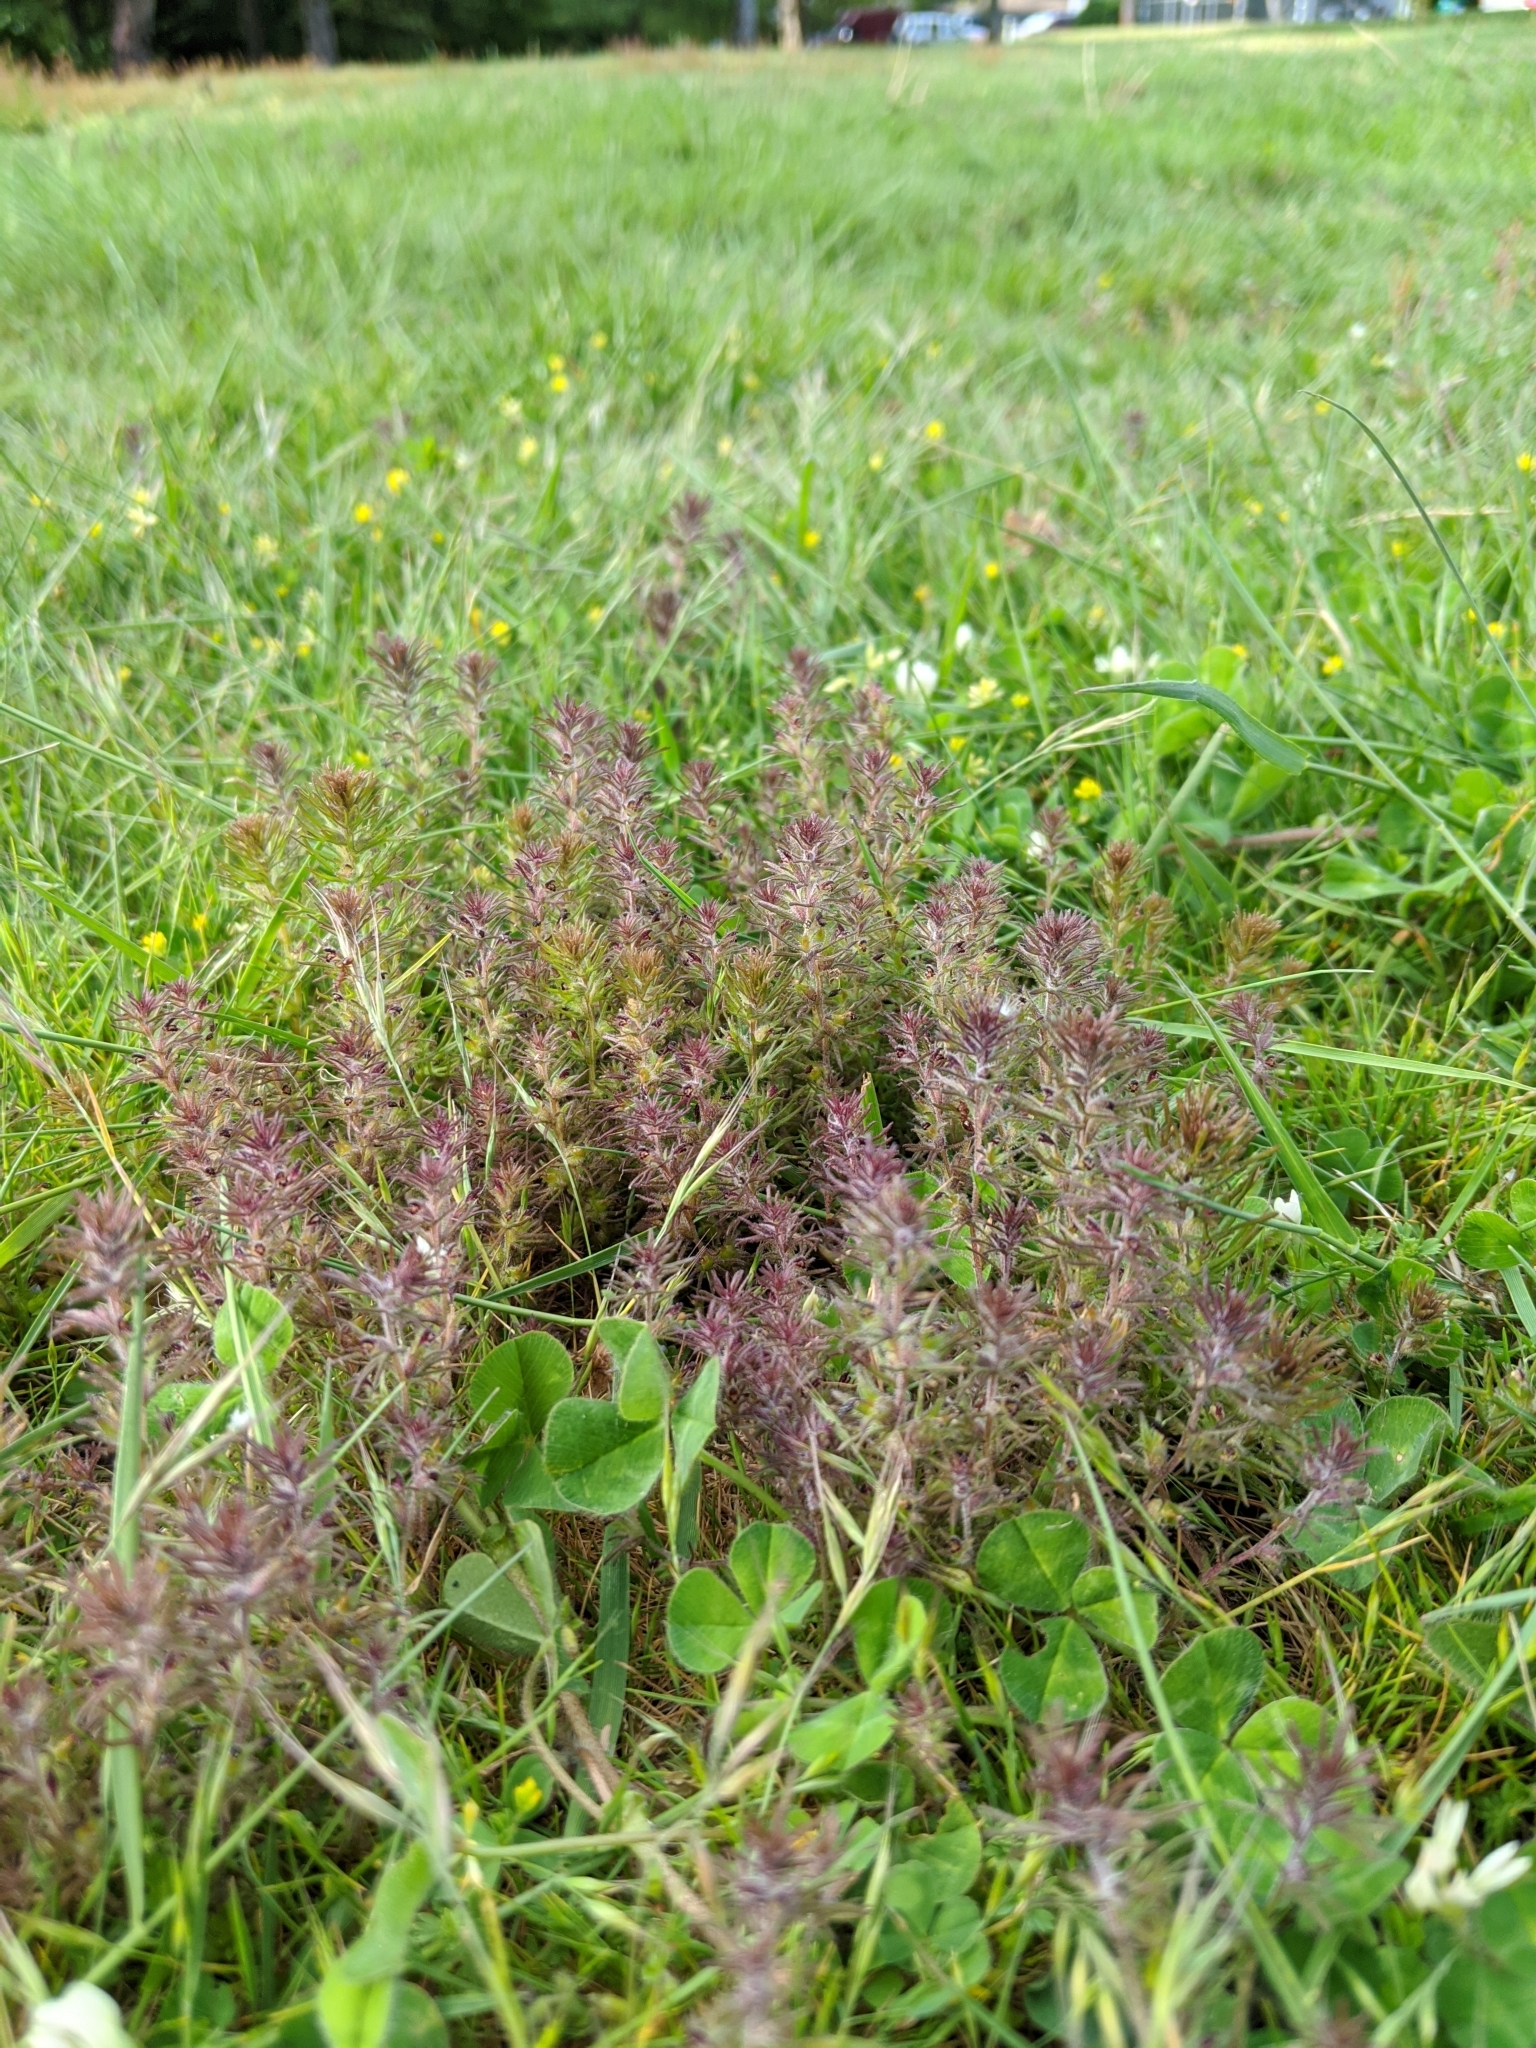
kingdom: Plantae
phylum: Tracheophyta
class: Magnoliopsida
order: Lamiales
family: Orobanchaceae
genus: Triphysaria
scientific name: Triphysaria pusilla
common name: Dwarf false owl-clover
